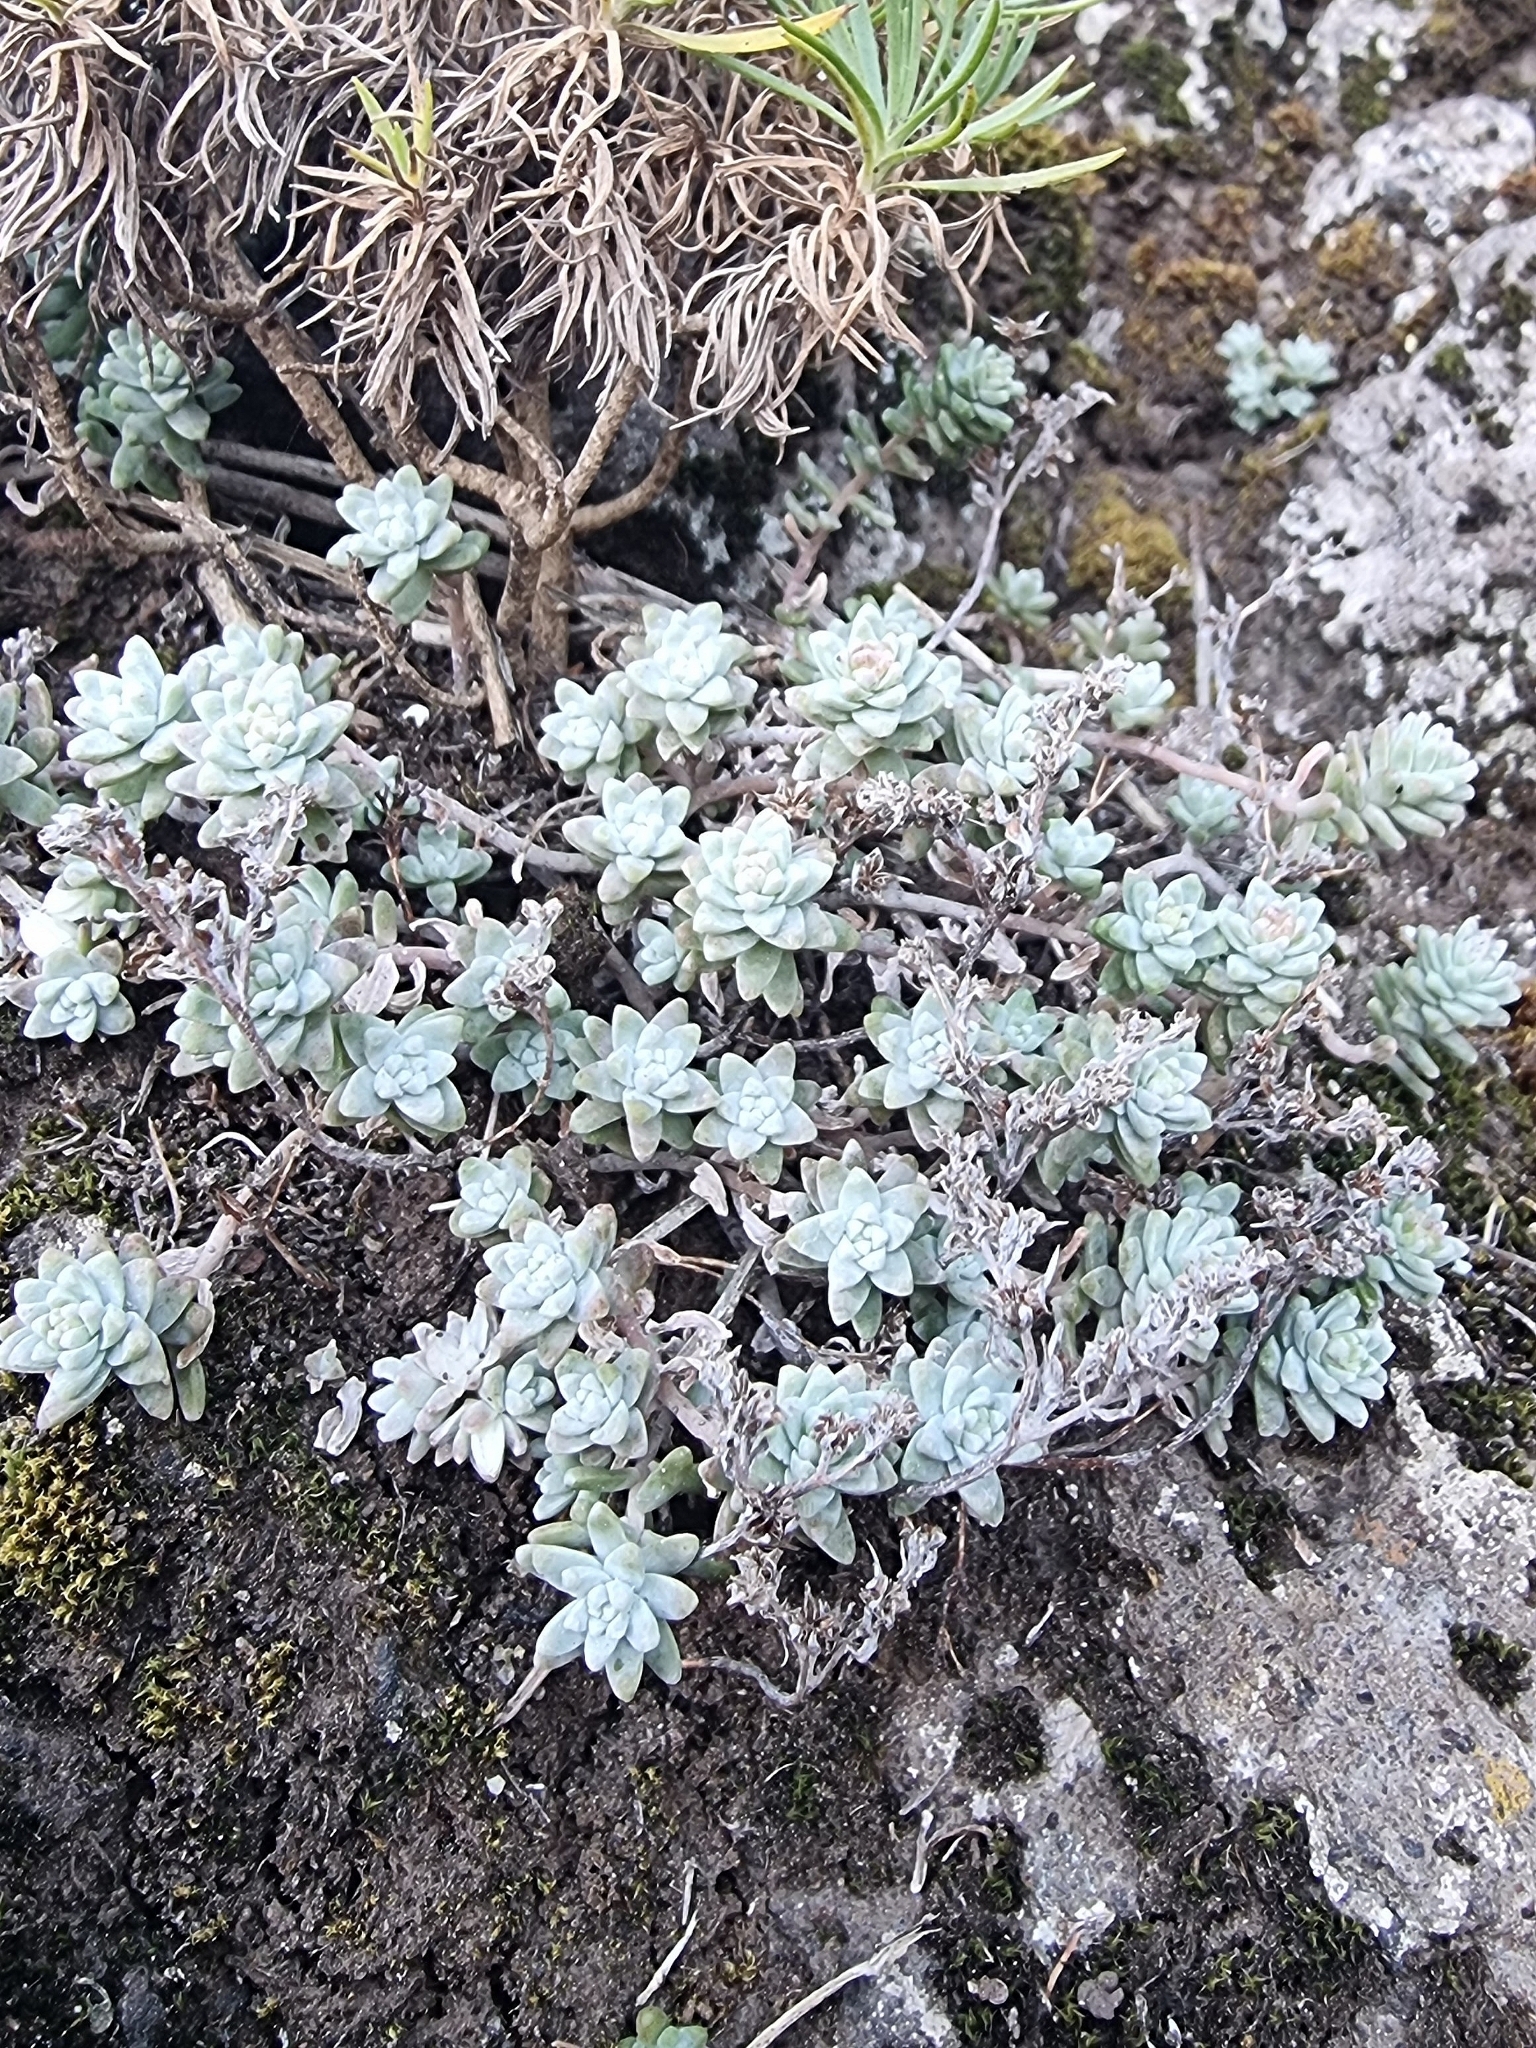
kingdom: Plantae
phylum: Tracheophyta
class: Magnoliopsida
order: Saxifragales
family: Crassulaceae
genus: Sedum
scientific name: Sedum farinosum
